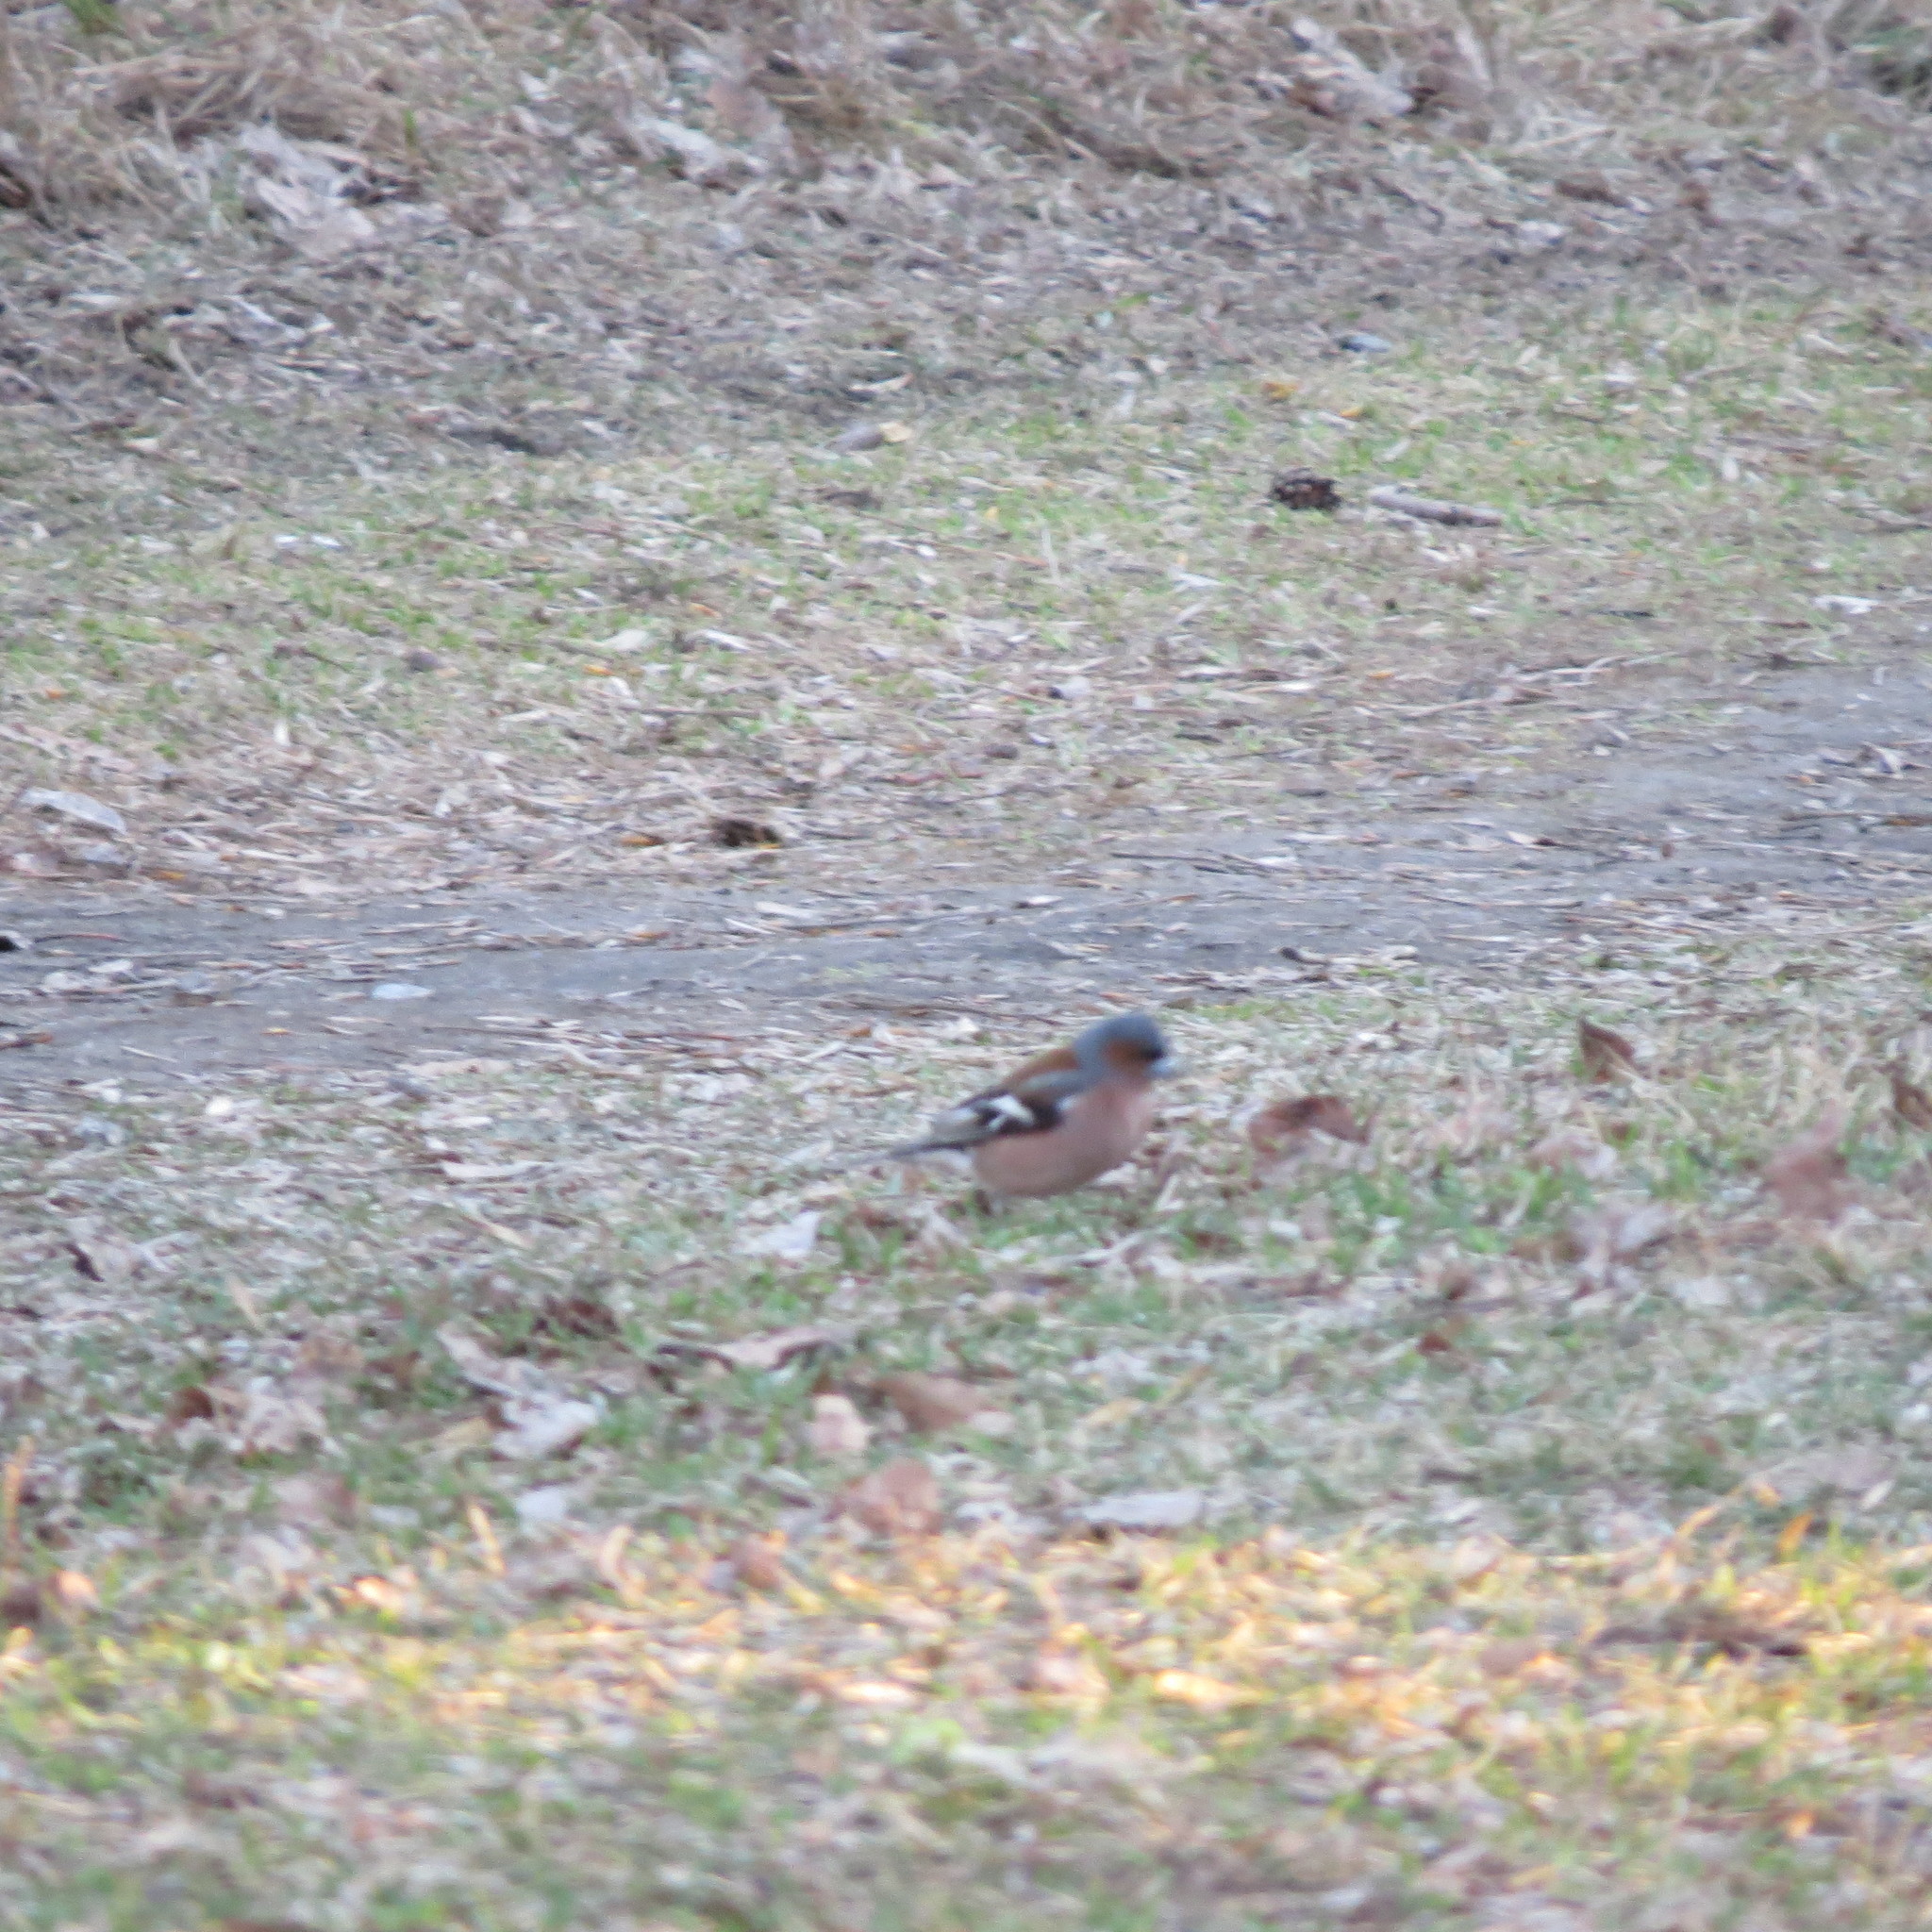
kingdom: Animalia
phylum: Chordata
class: Aves
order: Passeriformes
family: Fringillidae
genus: Fringilla
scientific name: Fringilla coelebs
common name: Common chaffinch
